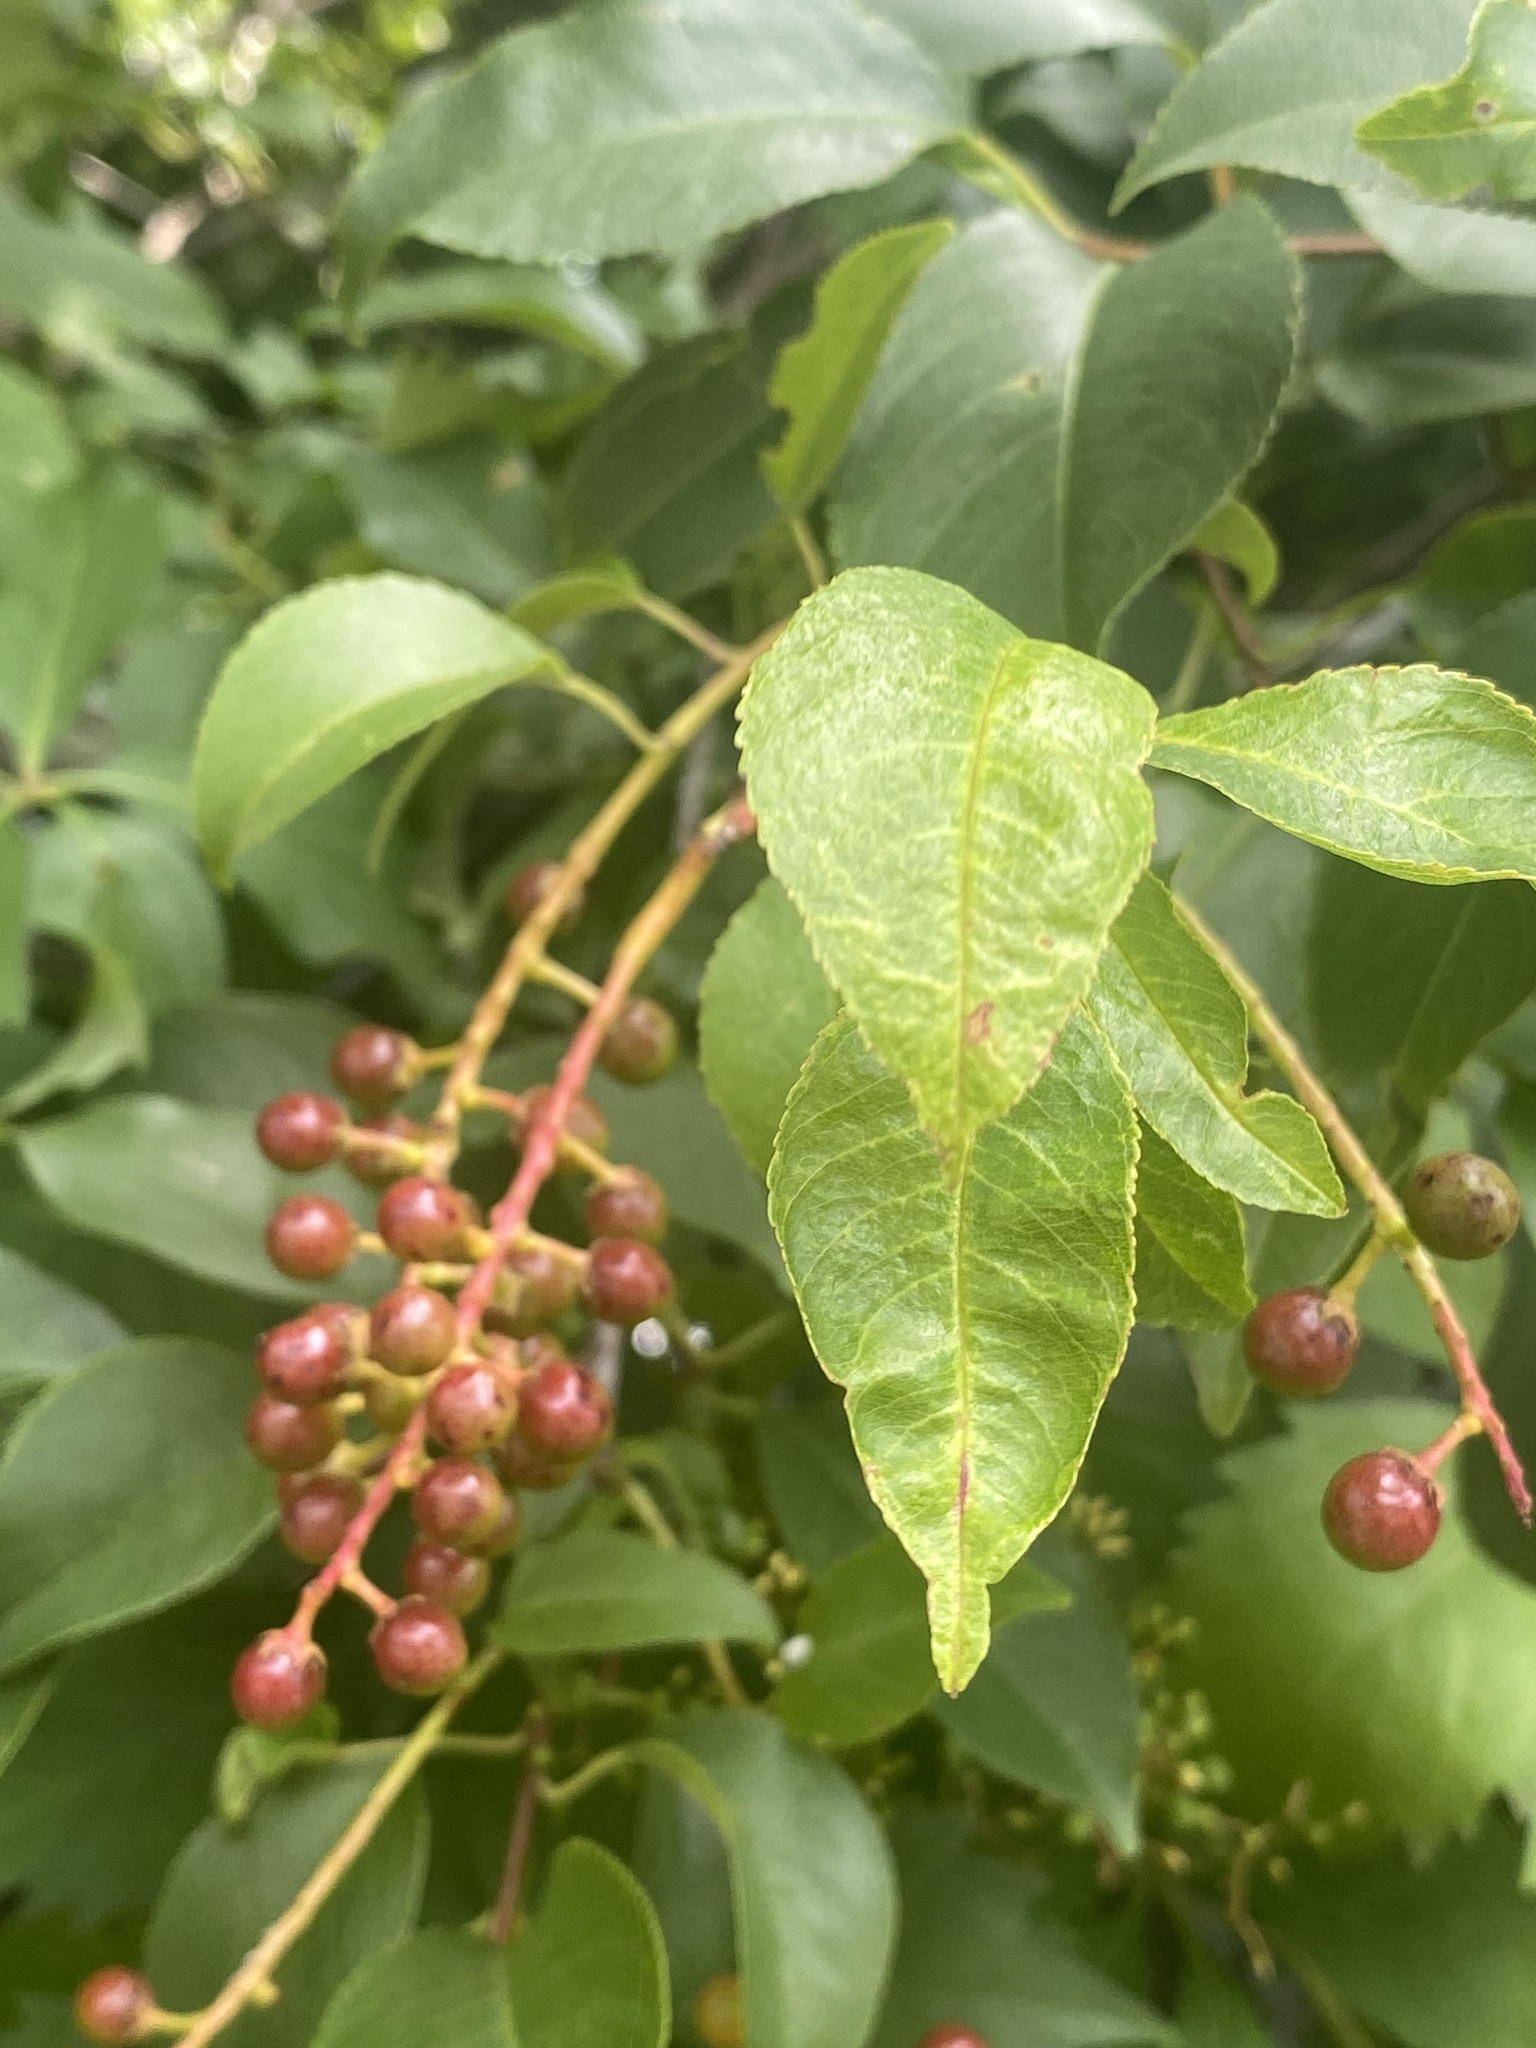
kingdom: Plantae
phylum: Tracheophyta
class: Magnoliopsida
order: Rosales
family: Rosaceae
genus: Prunus
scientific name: Prunus serotina
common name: Black cherry
